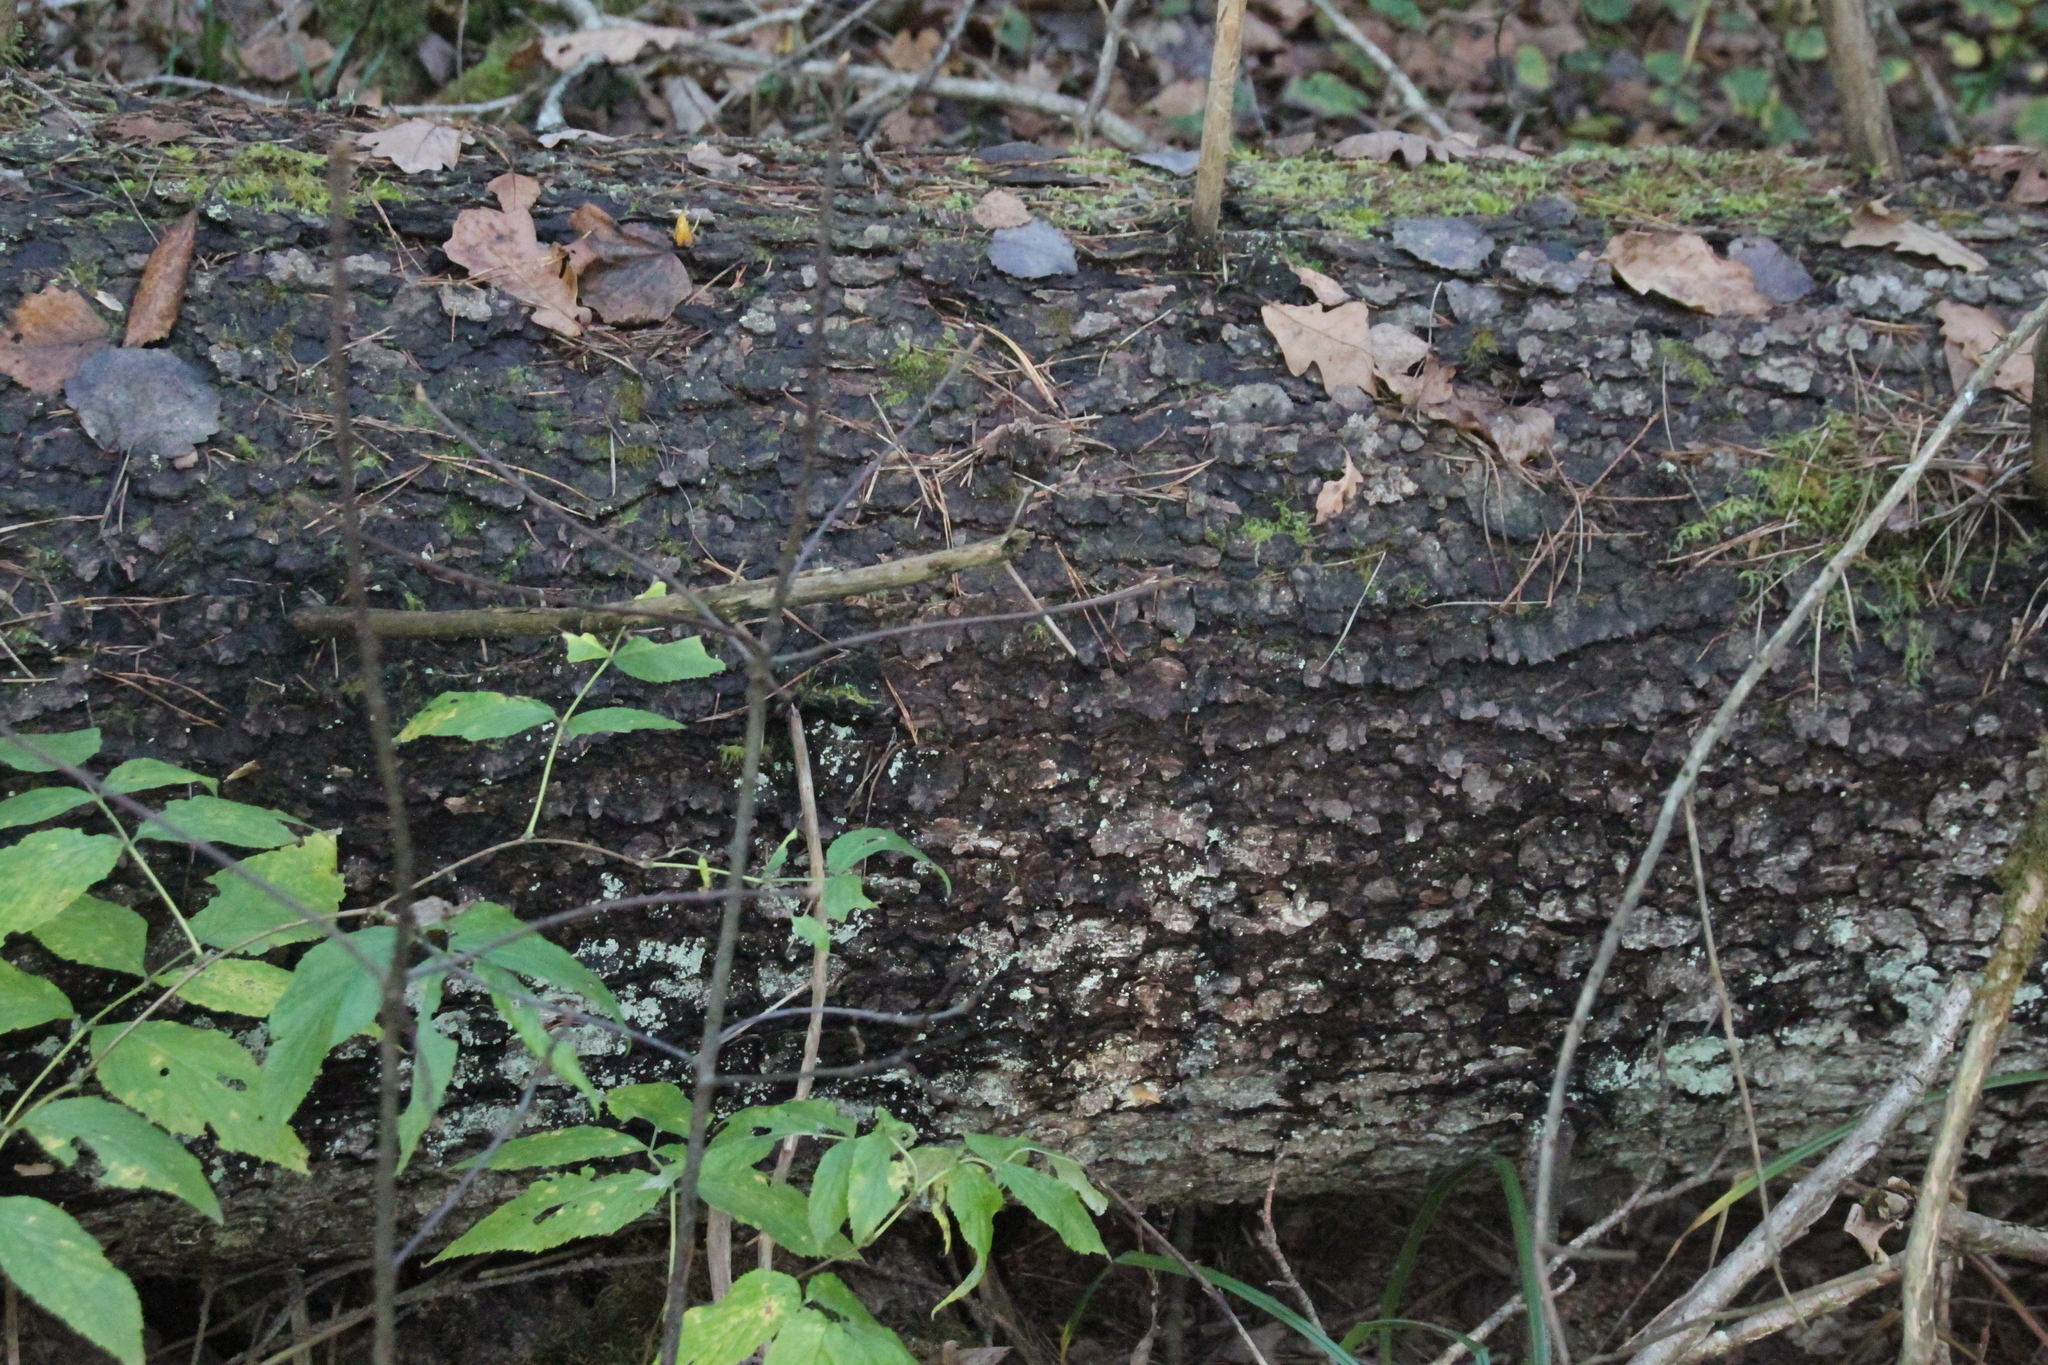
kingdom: Plantae
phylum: Tracheophyta
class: Pinopsida
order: Pinales
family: Pinaceae
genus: Picea
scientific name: Picea abies
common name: Norway spruce
